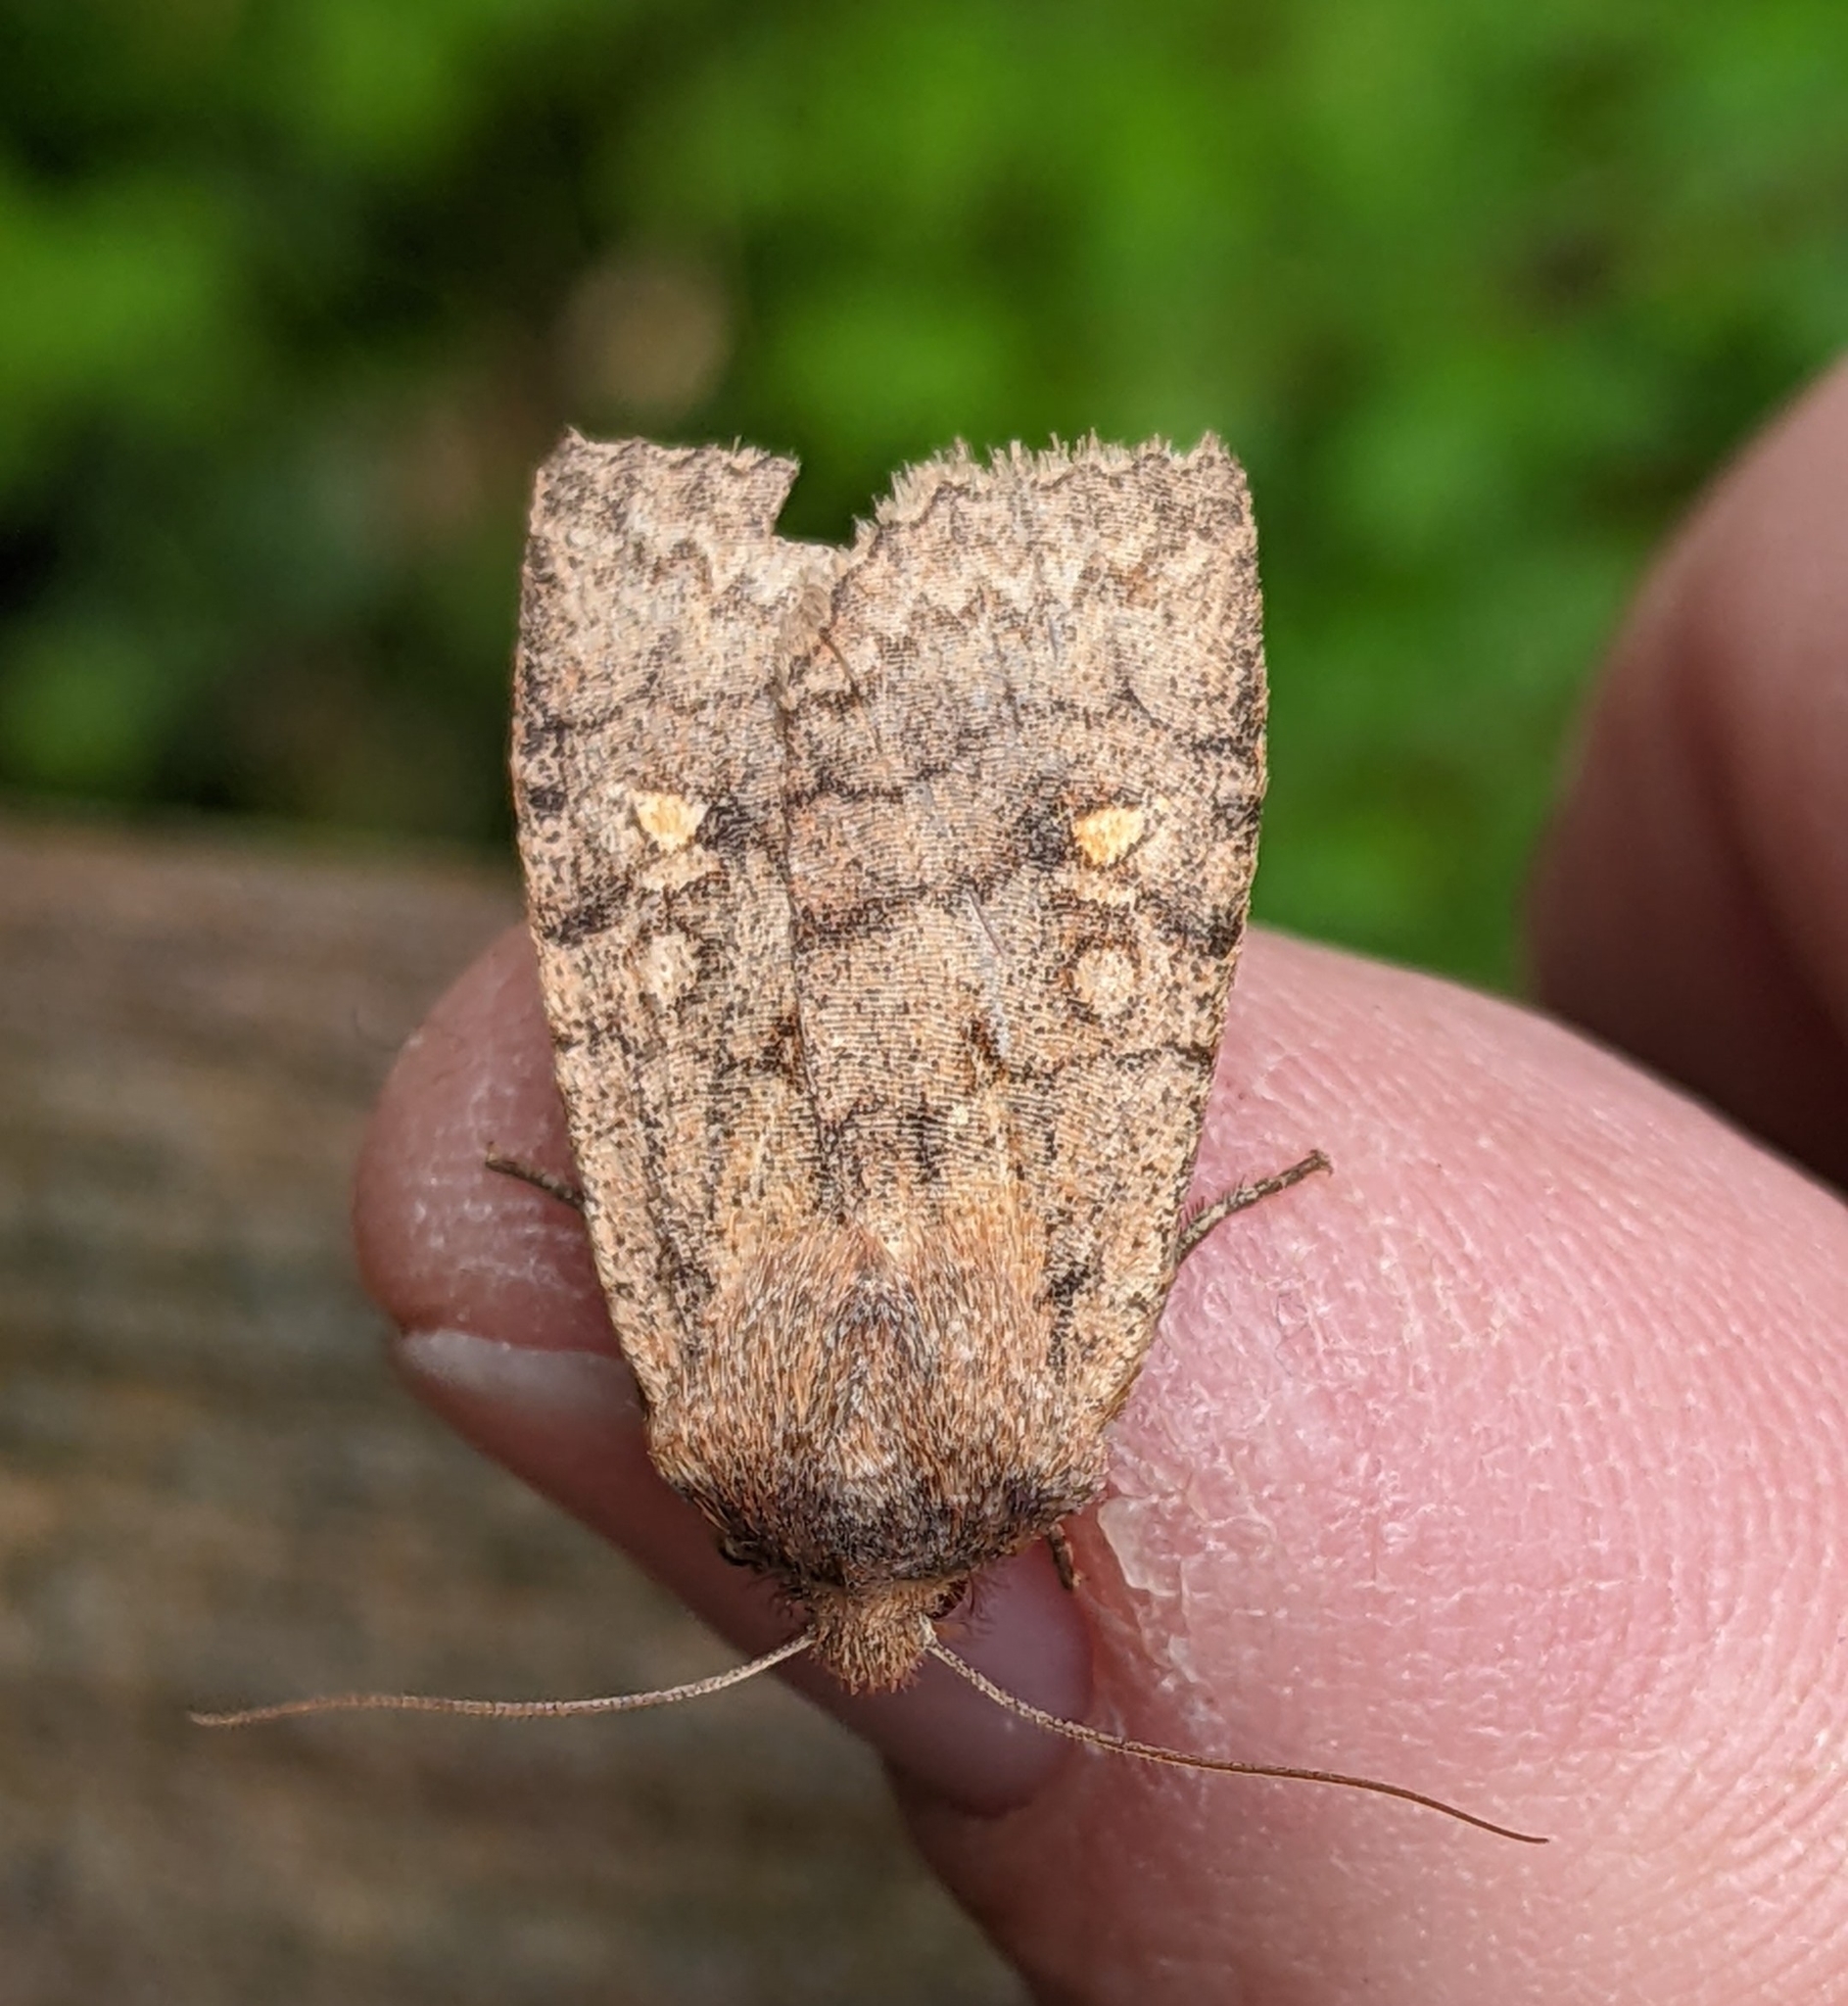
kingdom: Animalia
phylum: Arthropoda
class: Insecta
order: Lepidoptera
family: Noctuidae
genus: Eupsilia
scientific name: Eupsilia tristigmata
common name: Three-spotted sallow
